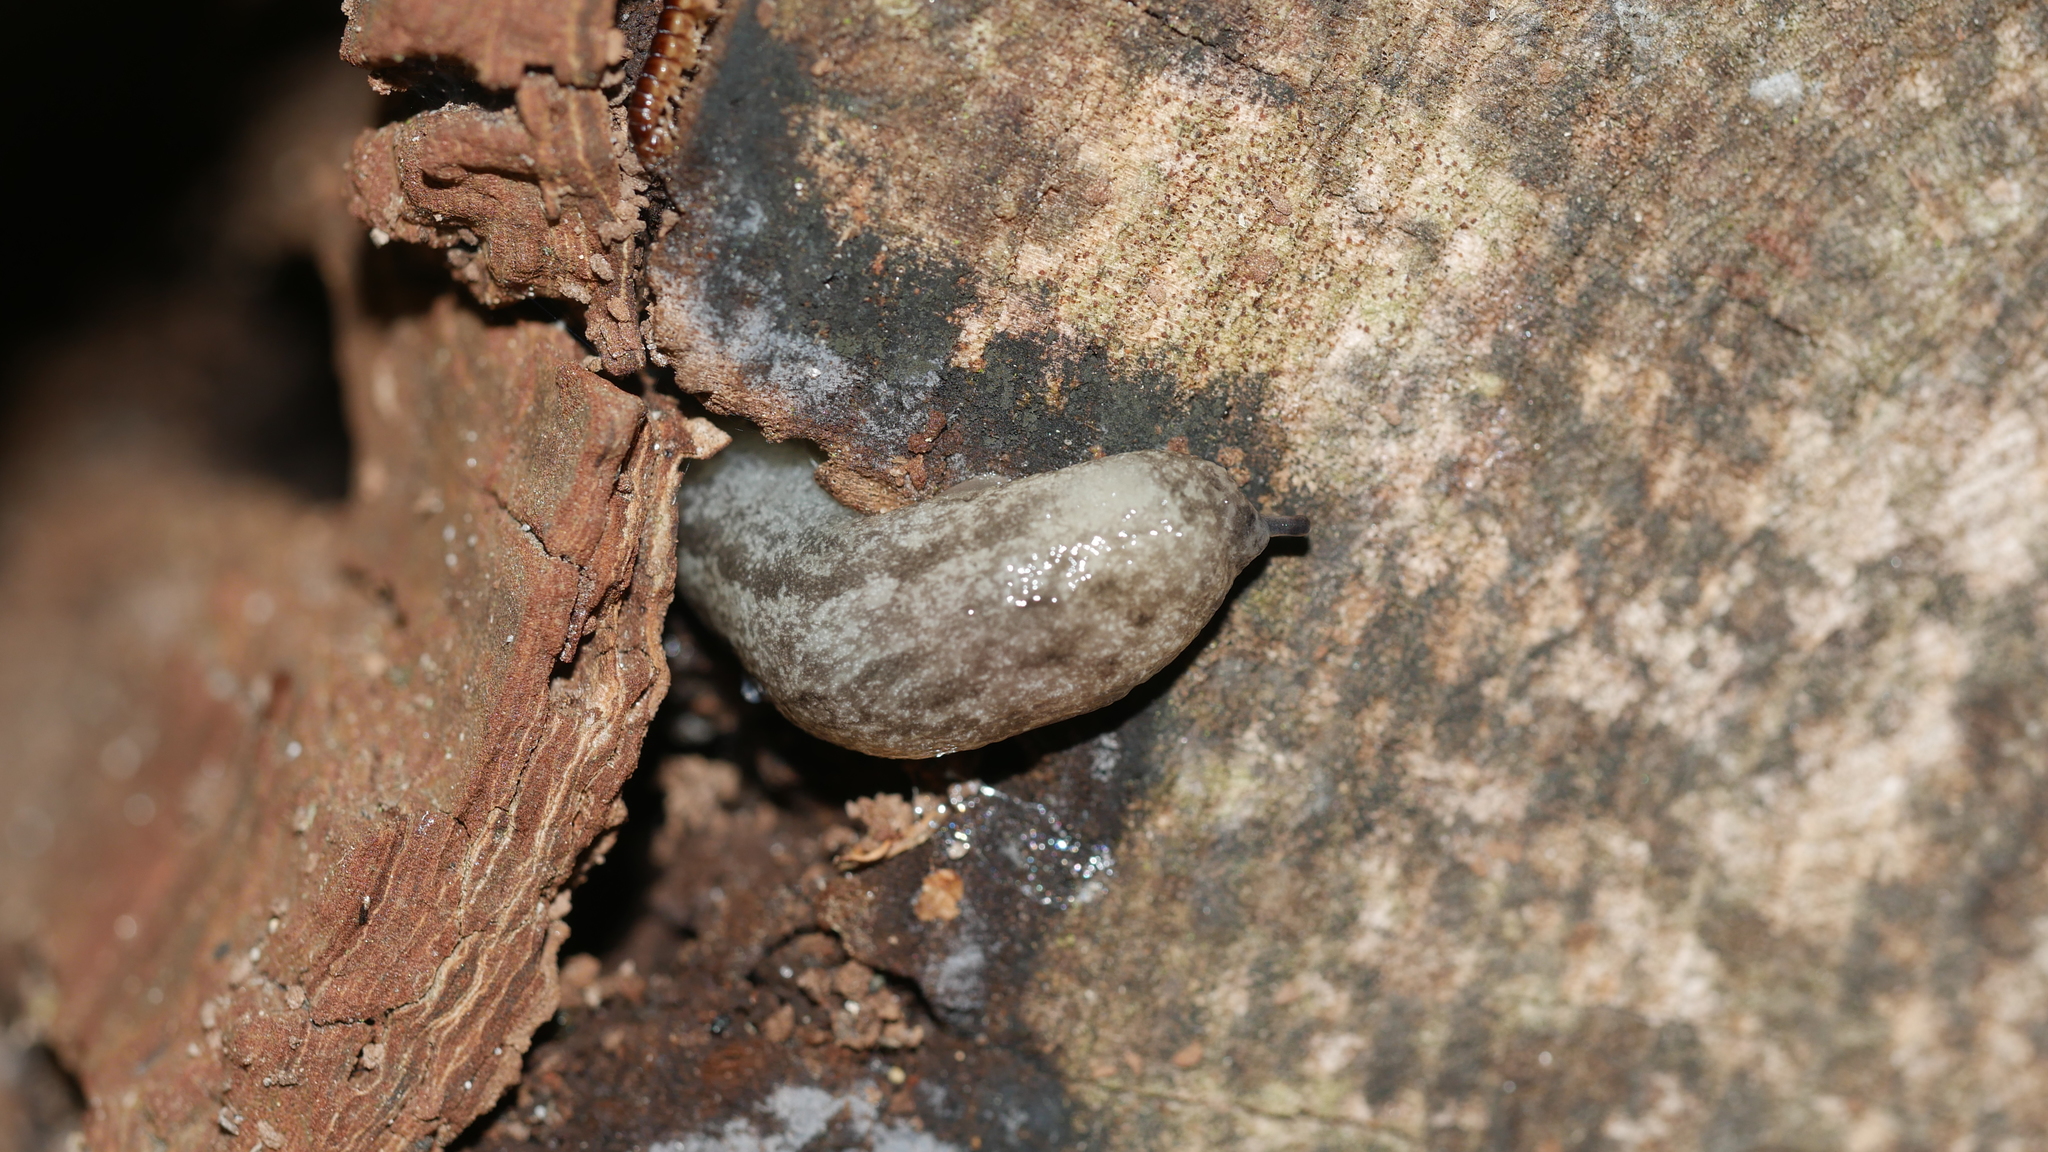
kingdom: Animalia
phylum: Mollusca
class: Gastropoda
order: Stylommatophora
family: Philomycidae
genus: Megapallifera
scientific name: Megapallifera mutabilis
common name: Changeable mantleslug
